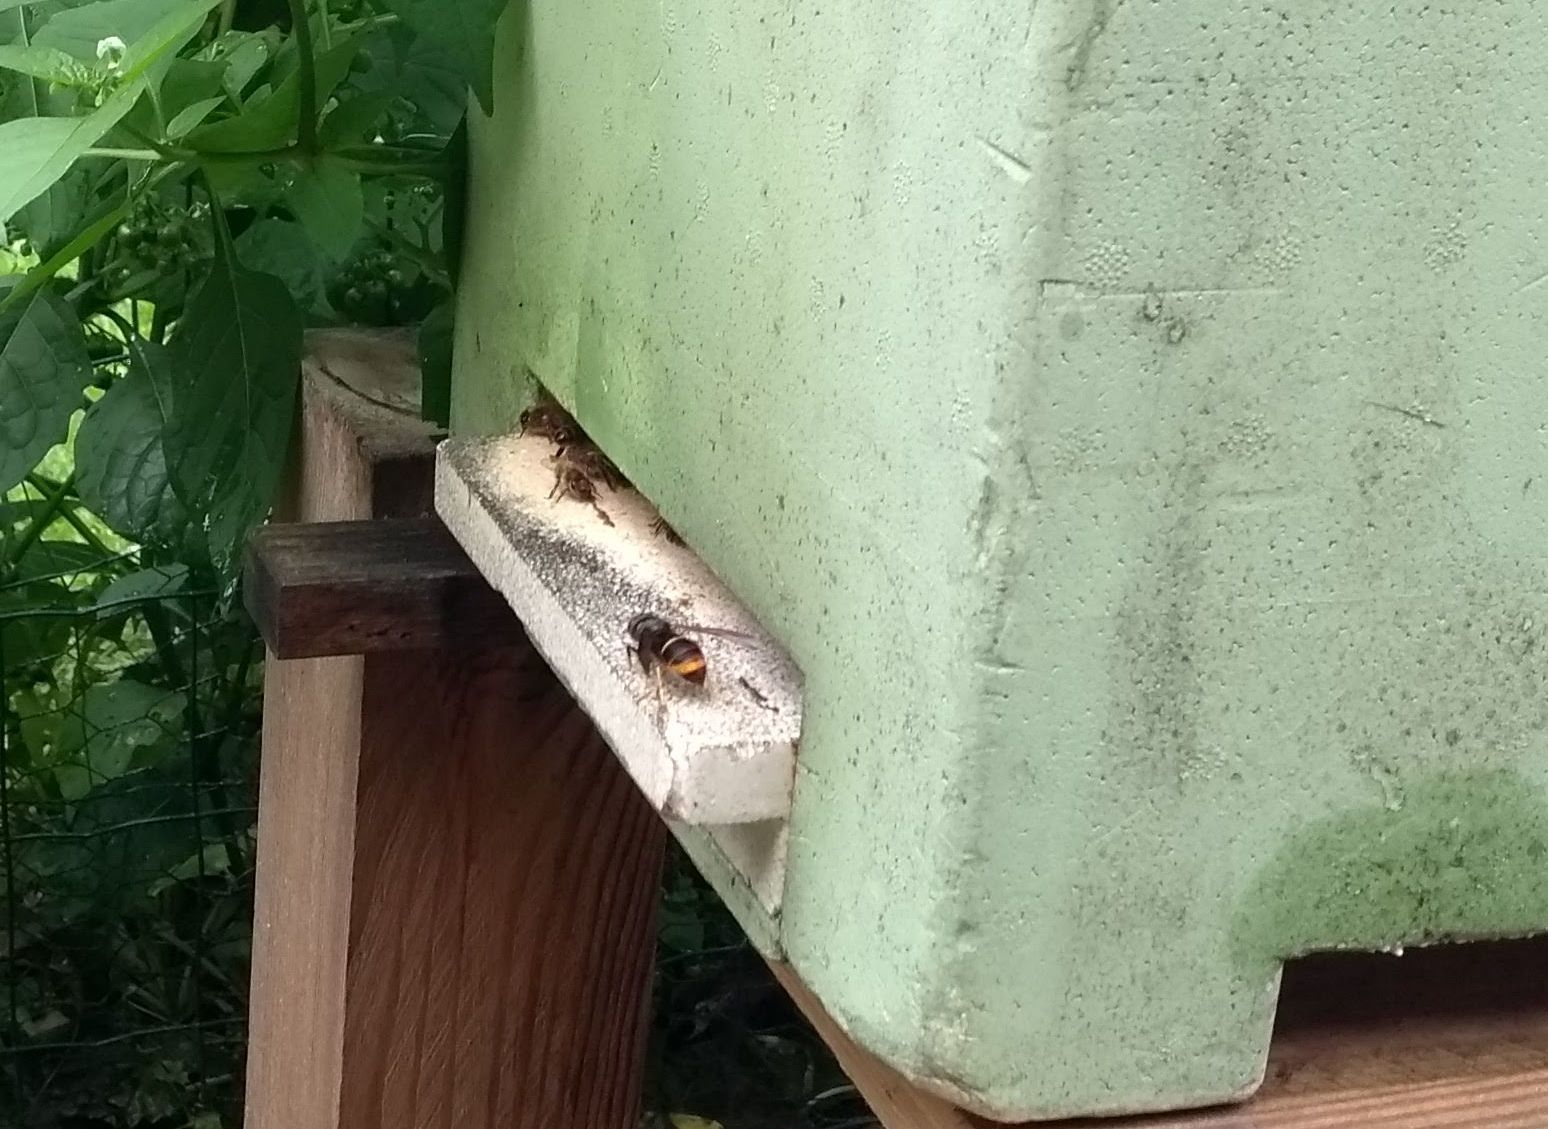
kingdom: Animalia
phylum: Arthropoda
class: Insecta
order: Hymenoptera
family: Vespidae
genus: Vespa
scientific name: Vespa velutina
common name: Asian hornet
